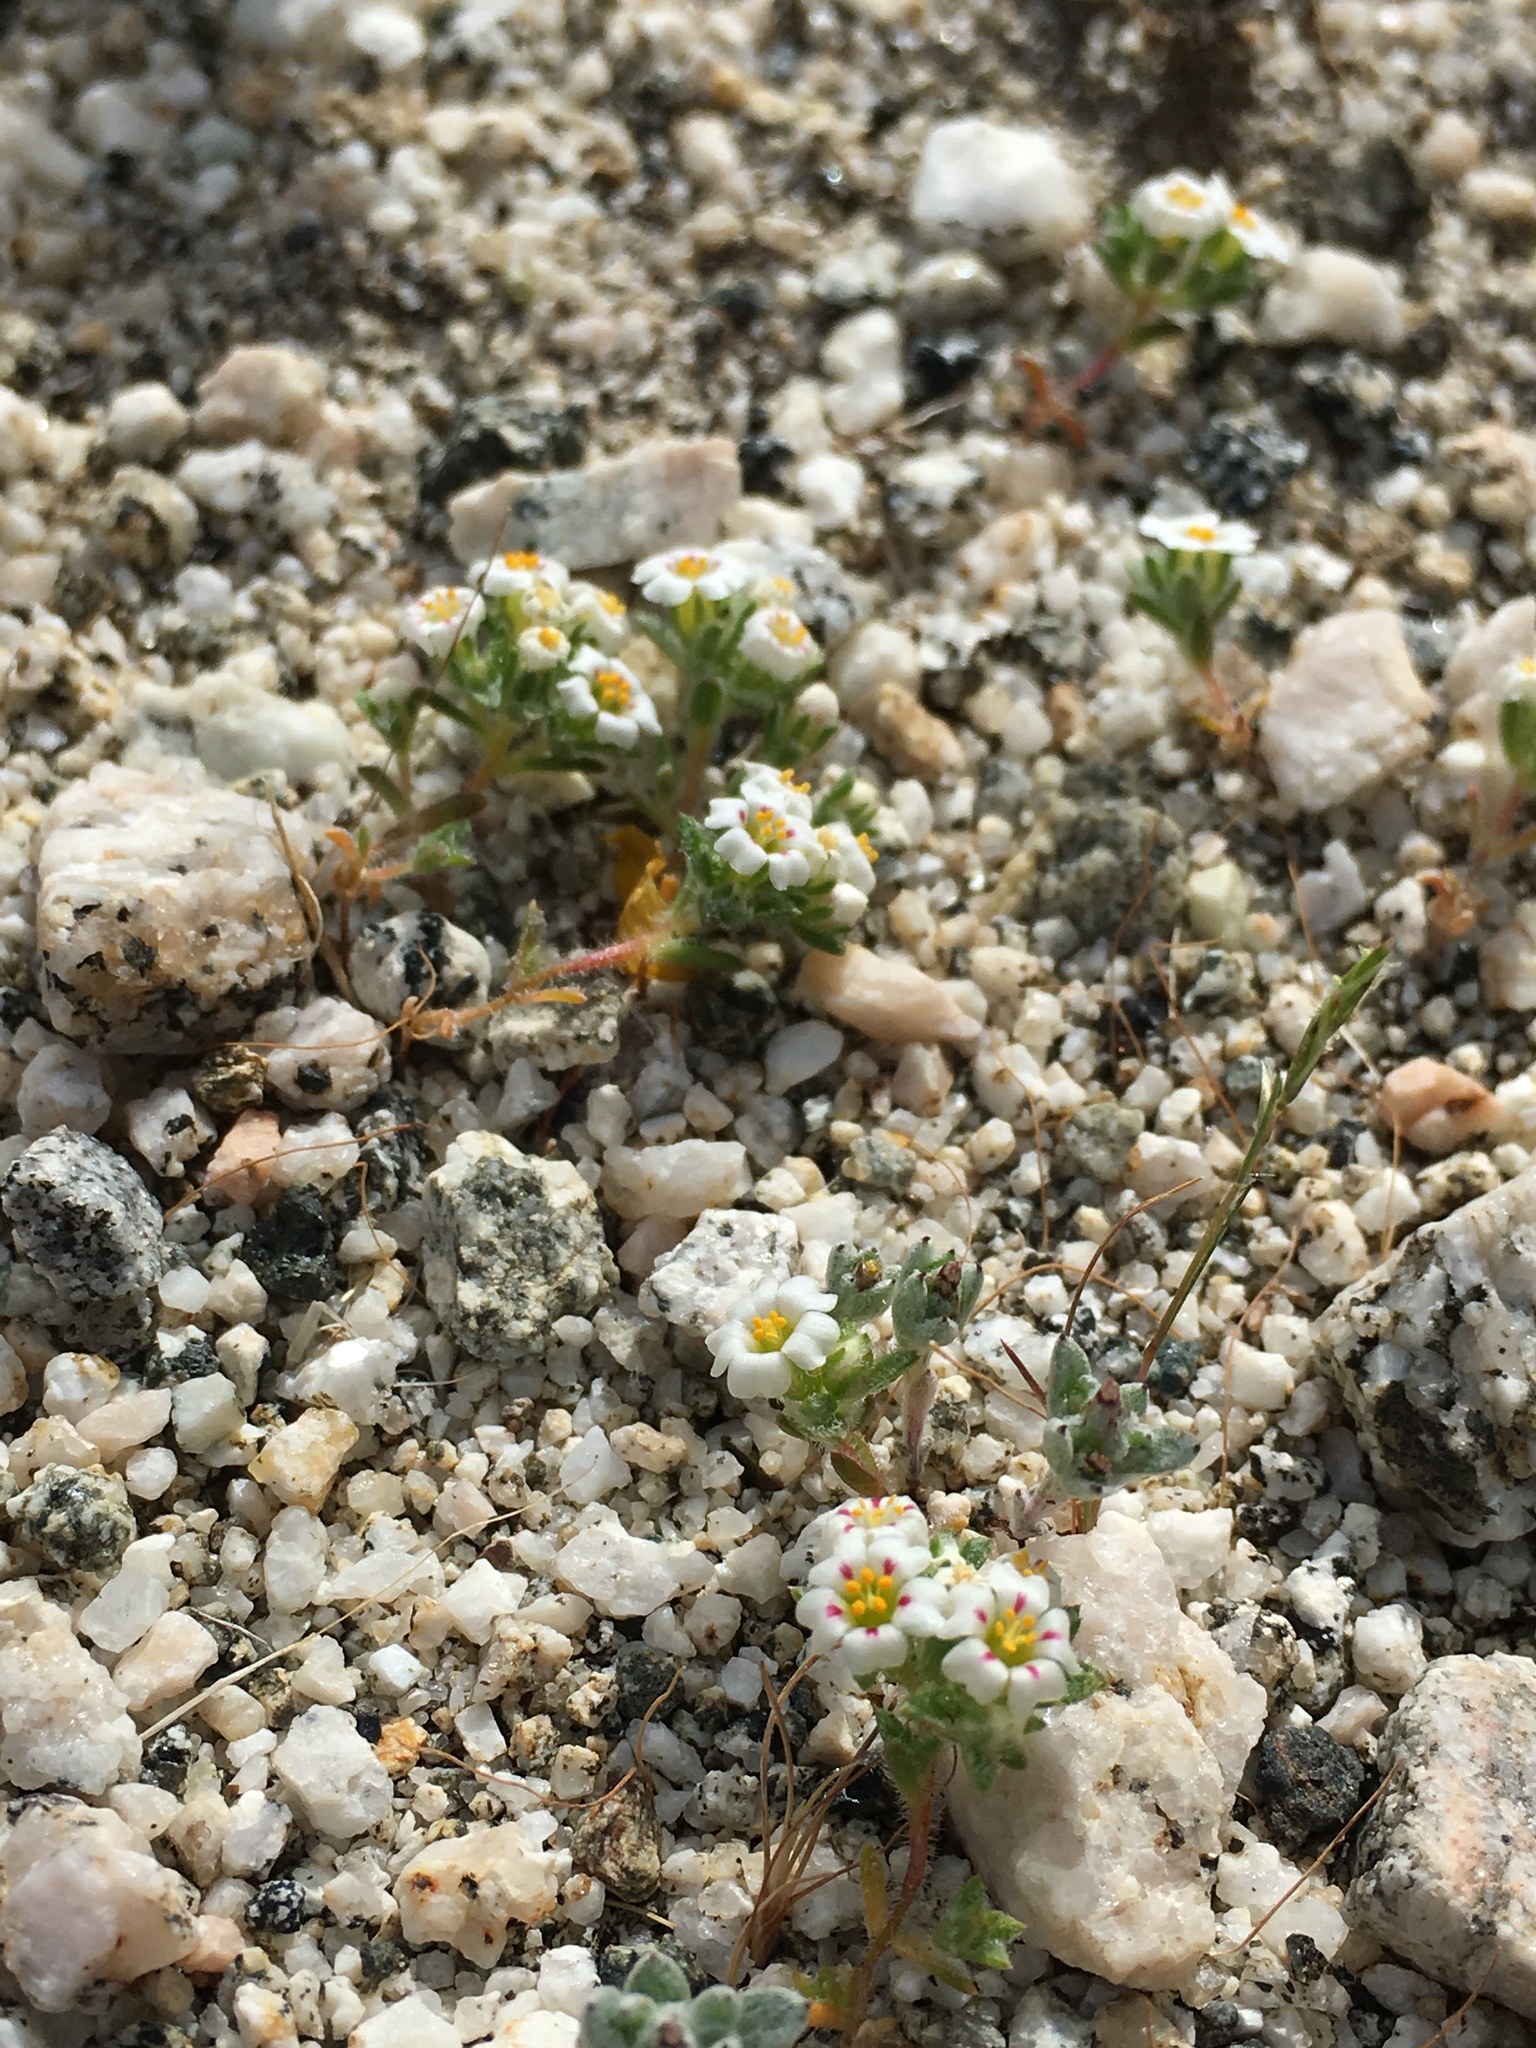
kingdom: Plantae
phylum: Tracheophyta
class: Magnoliopsida
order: Ericales
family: Polemoniaceae
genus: Maculigilia
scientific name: Maculigilia maculata
